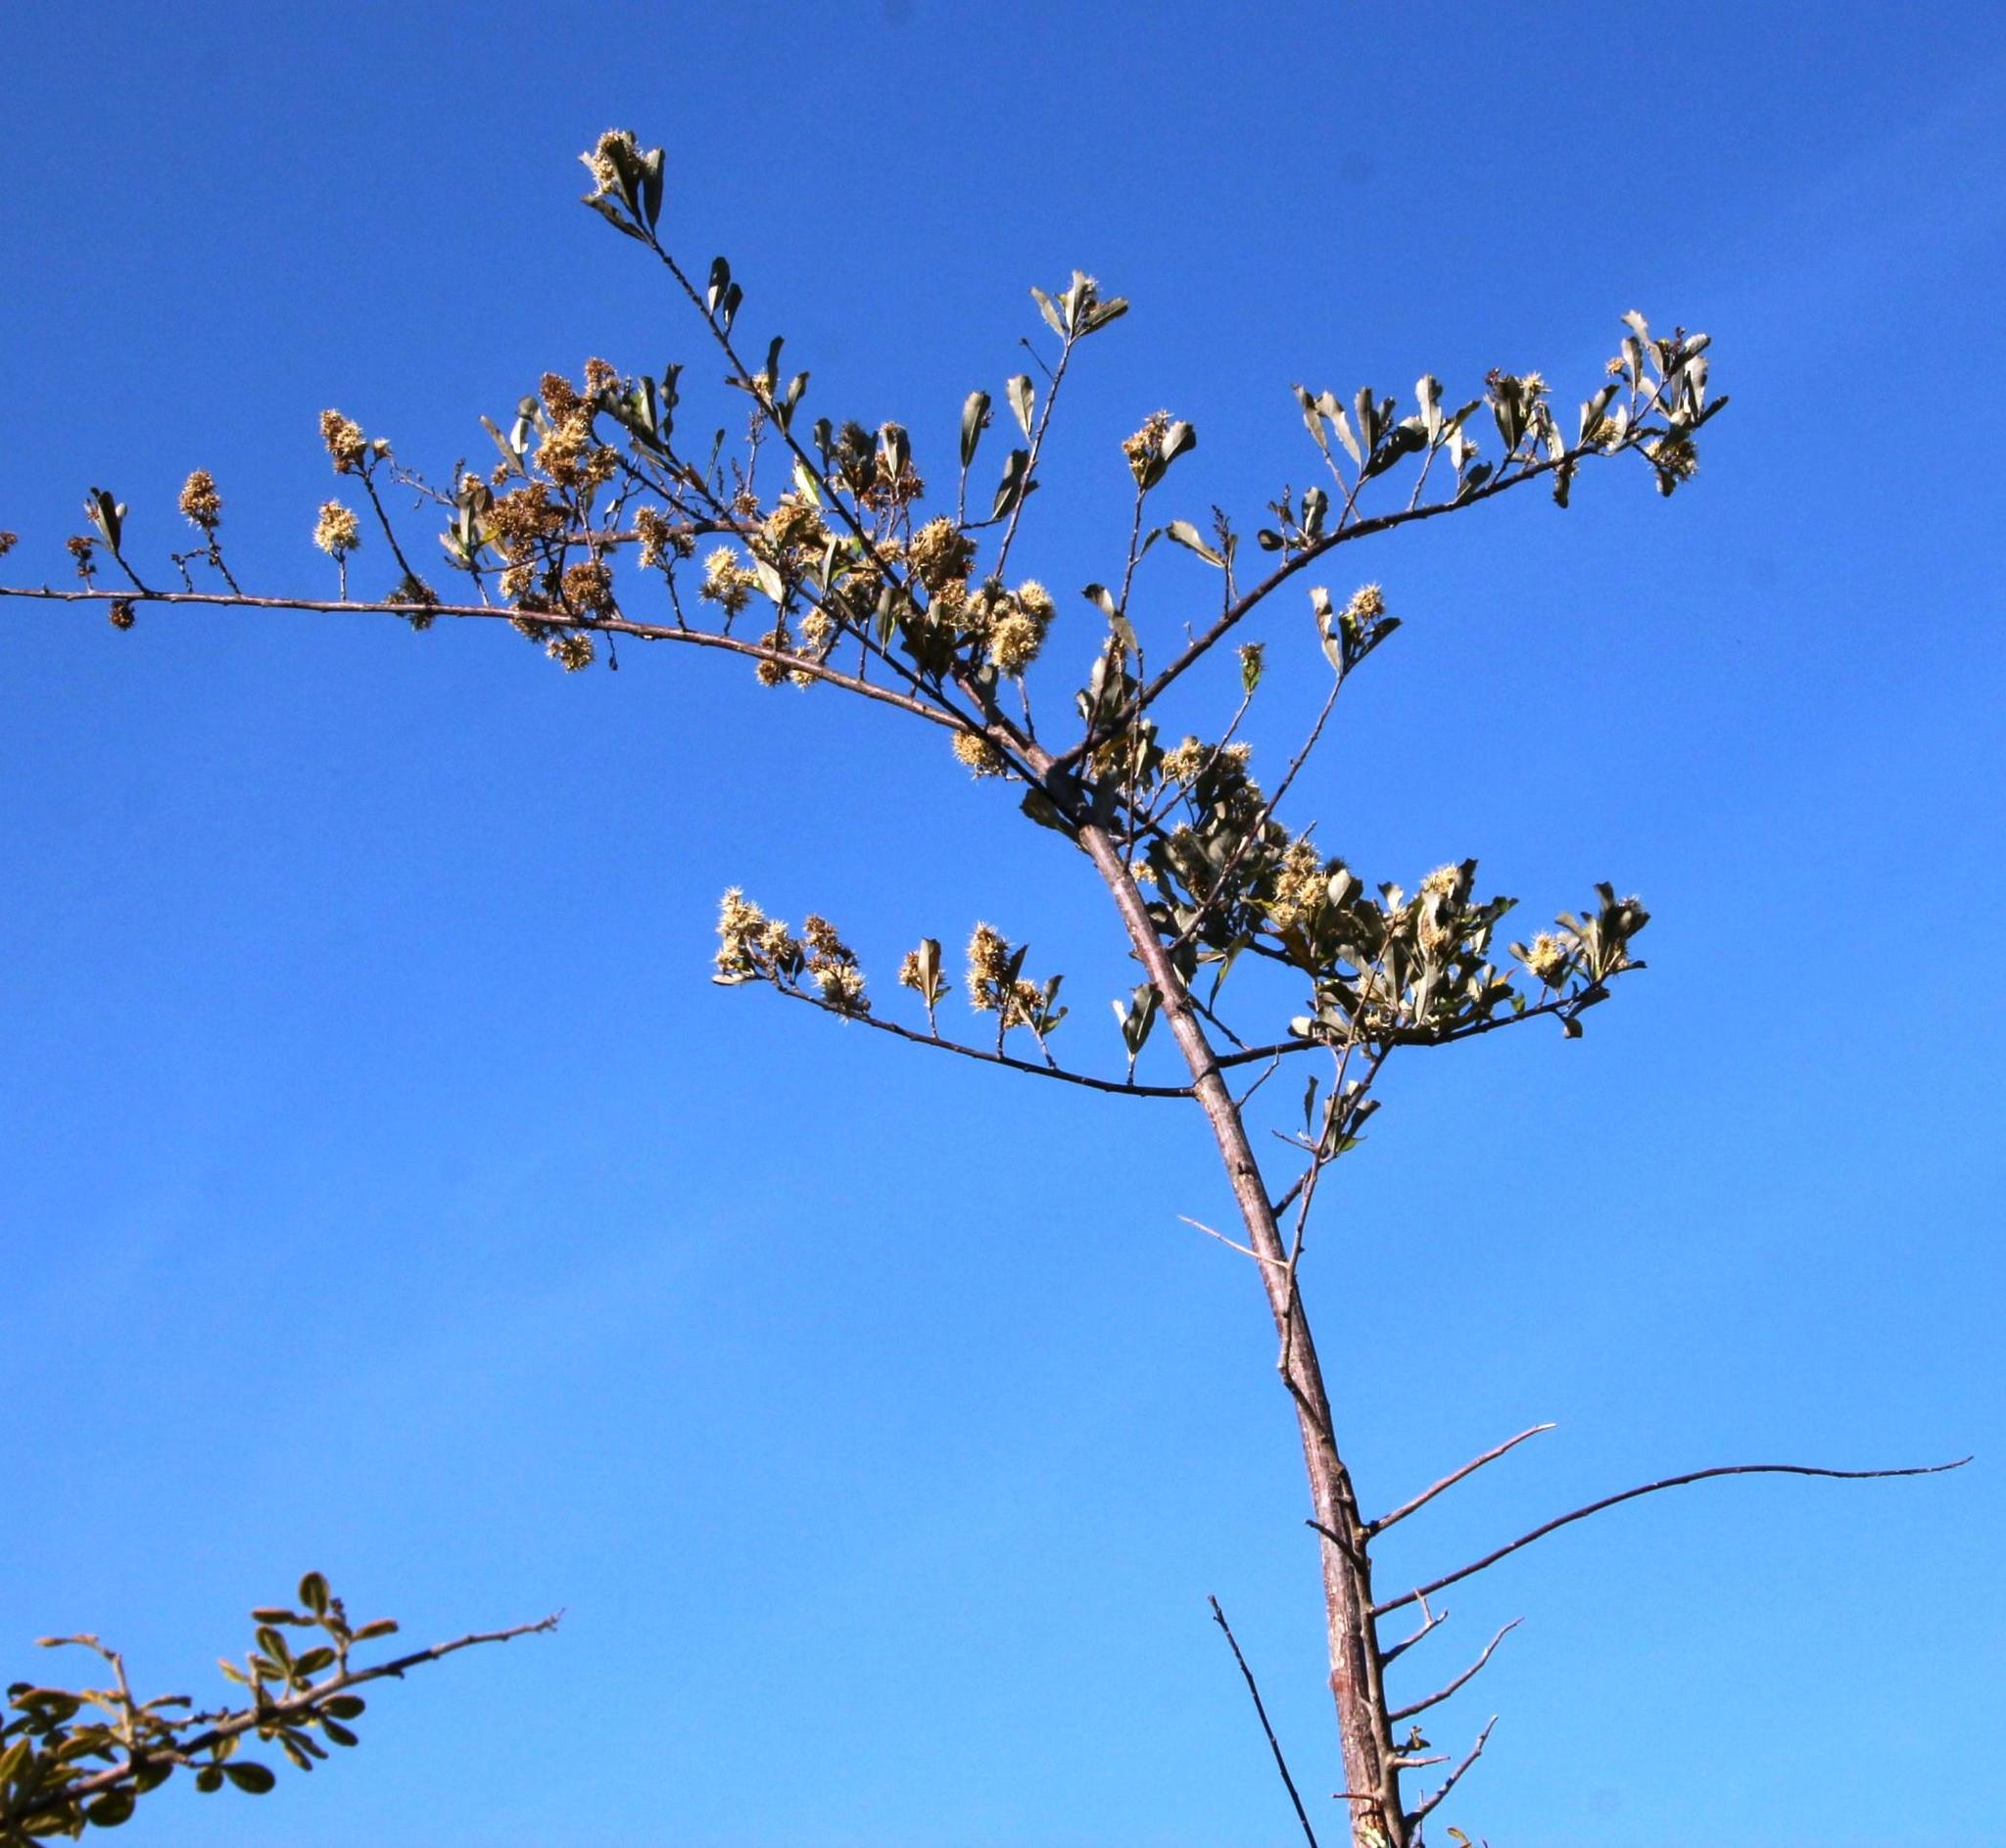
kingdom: Plantae
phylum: Tracheophyta
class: Magnoliopsida
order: Asterales
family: Asteraceae
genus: Brachylaena
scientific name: Brachylaena discolor
